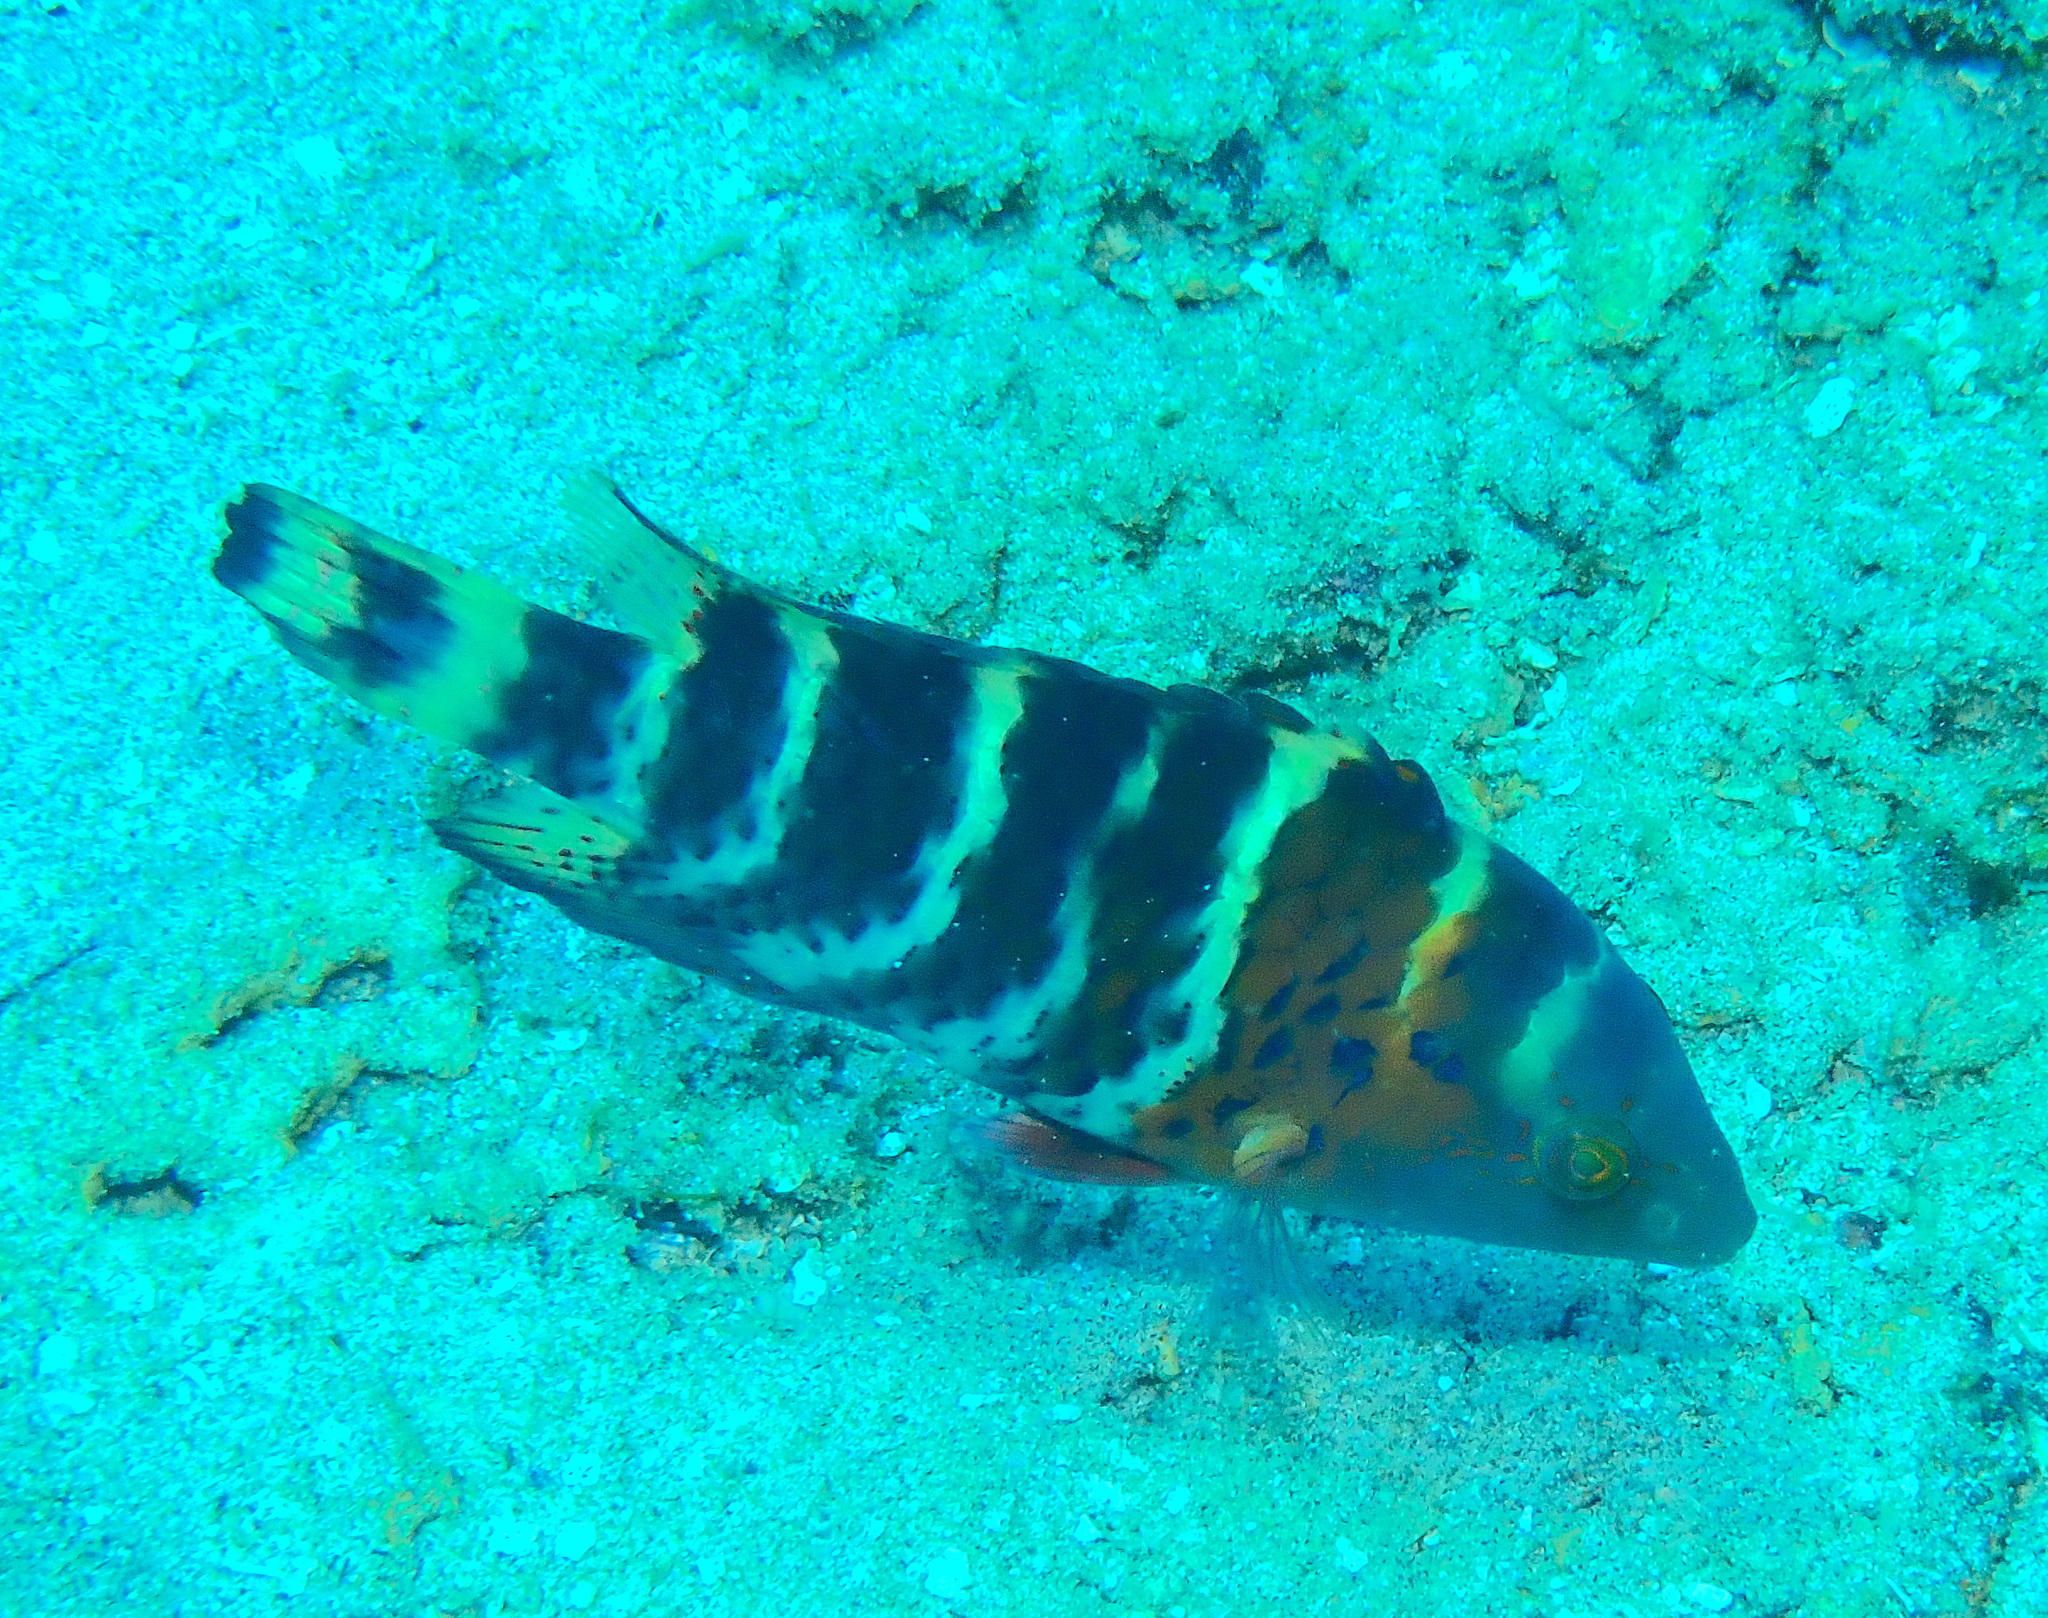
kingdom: Animalia
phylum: Chordata
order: Perciformes
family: Labridae
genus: Cheilinus
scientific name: Cheilinus fasciatus
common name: Red-breasted wrasse
